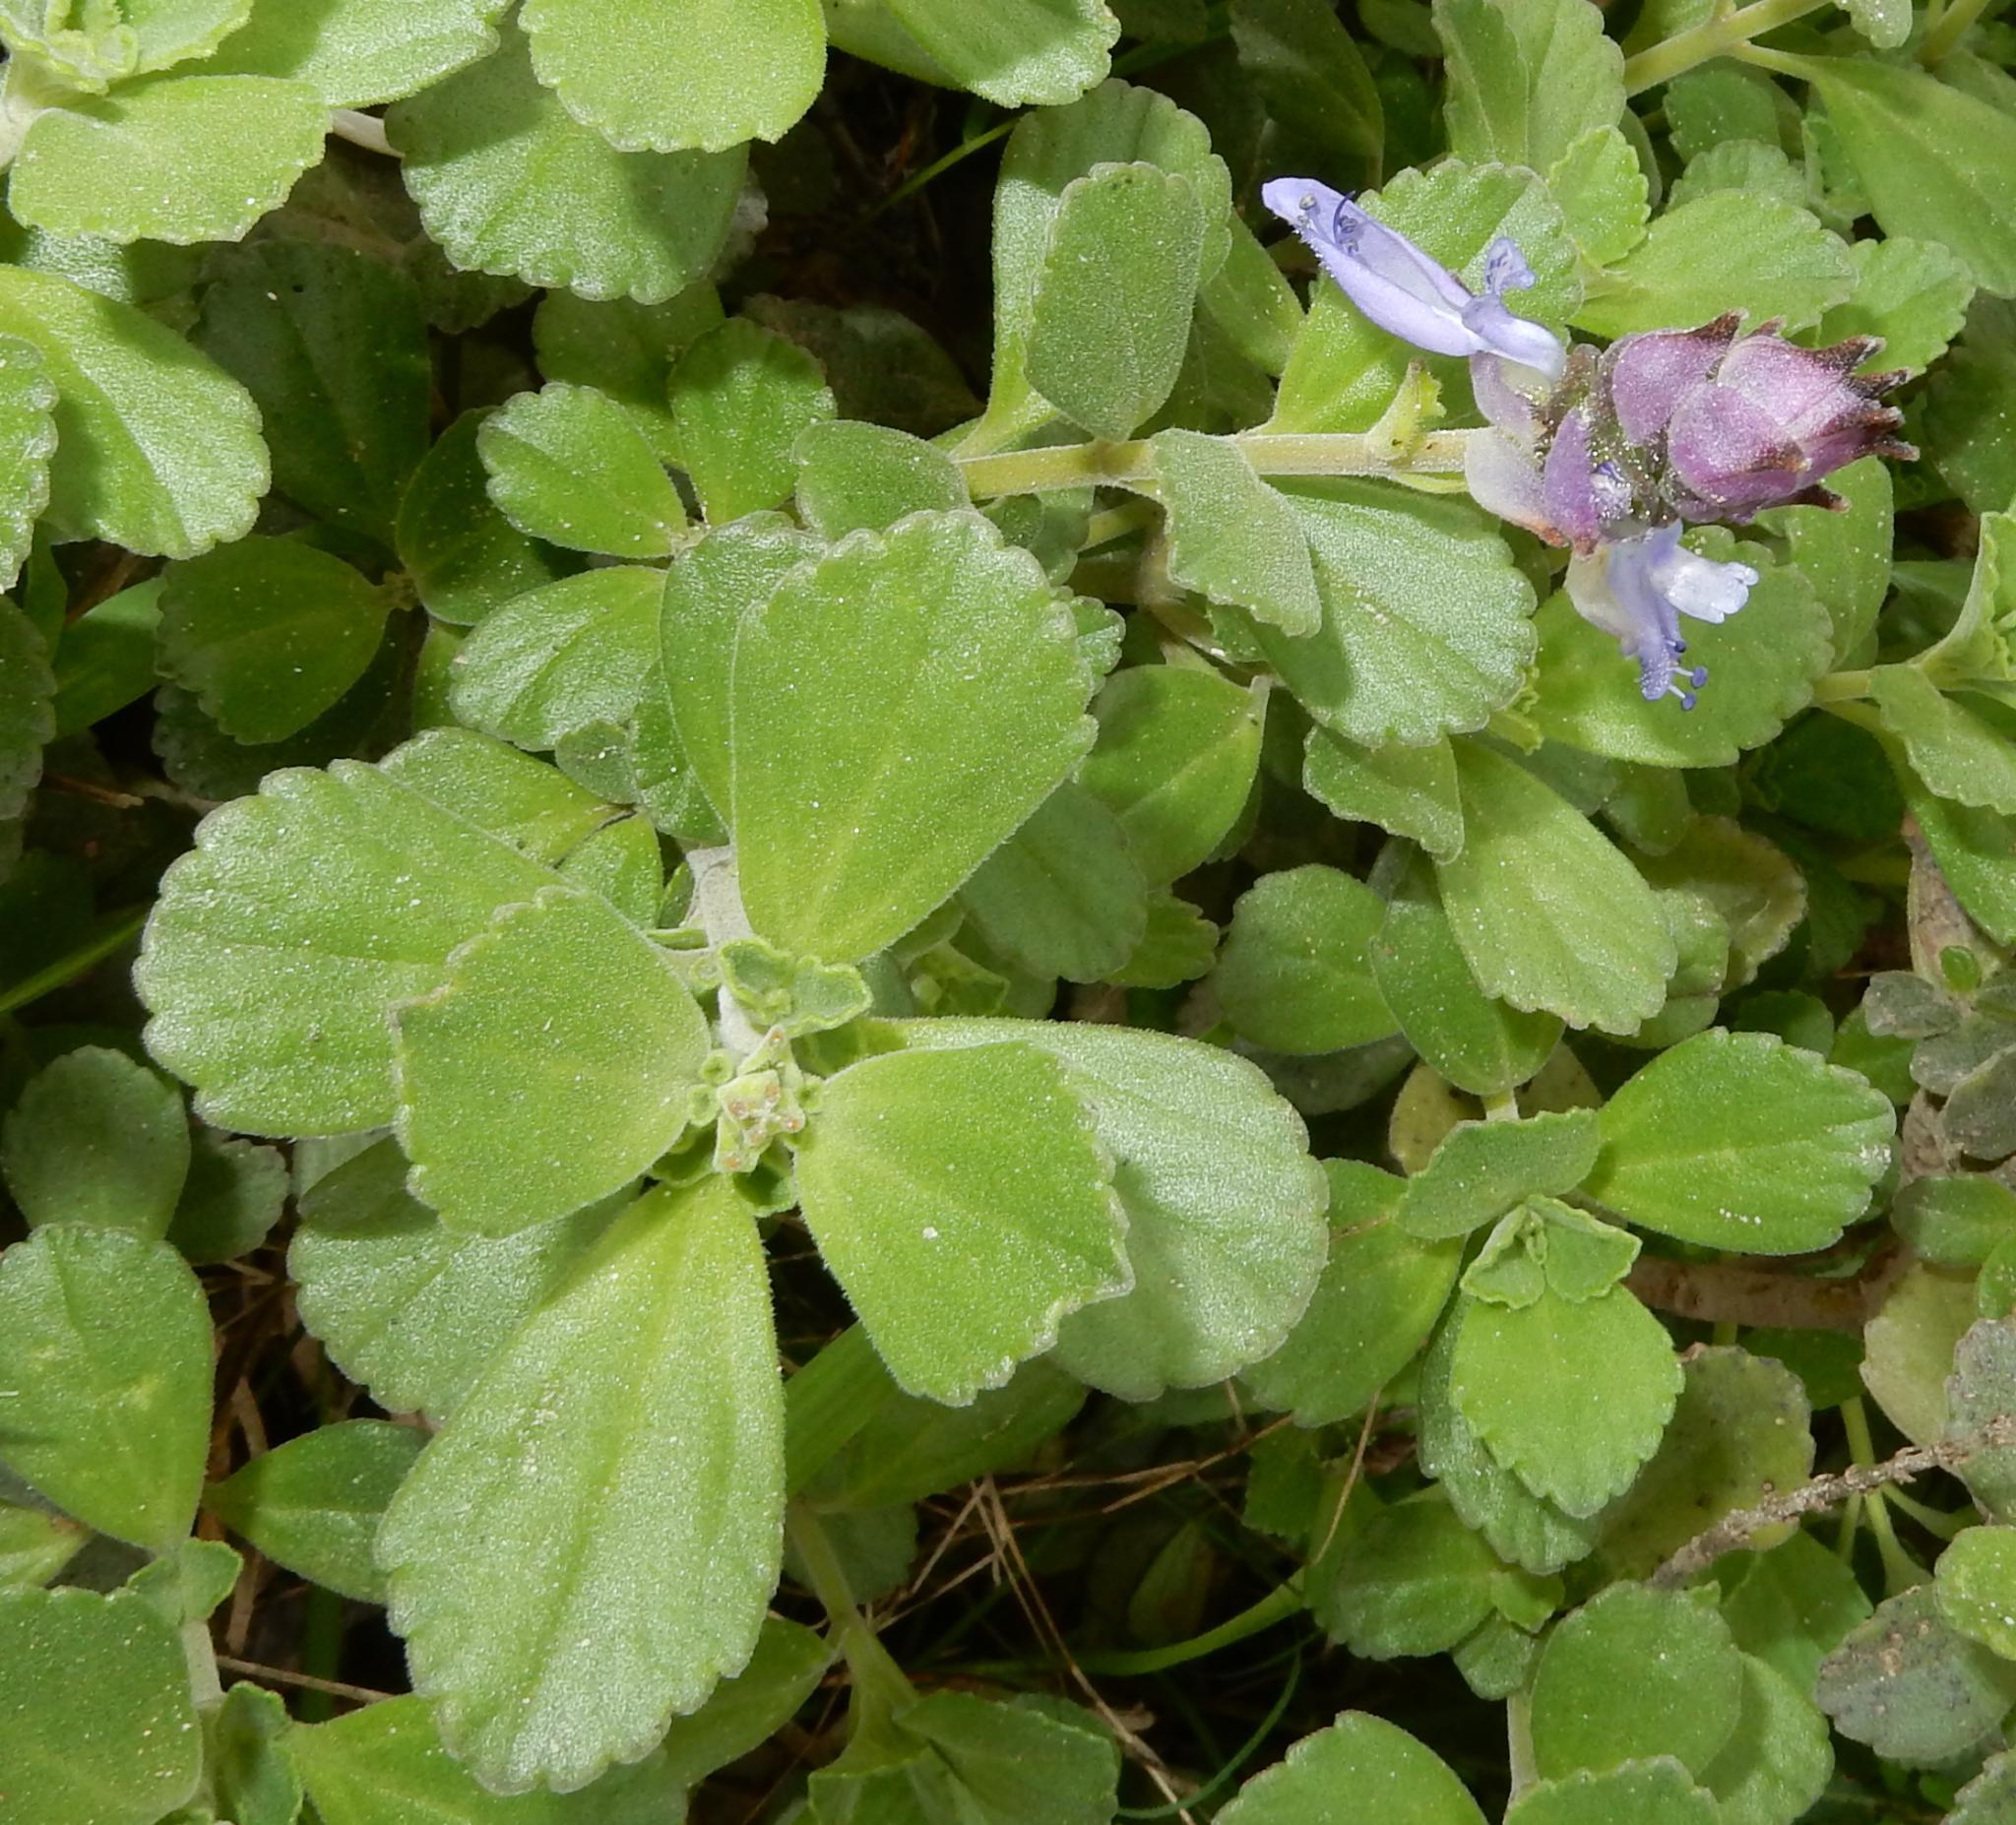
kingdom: Plantae
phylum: Tracheophyta
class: Magnoliopsida
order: Lamiales
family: Lamiaceae
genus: Coleus
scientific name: Coleus neochilus
